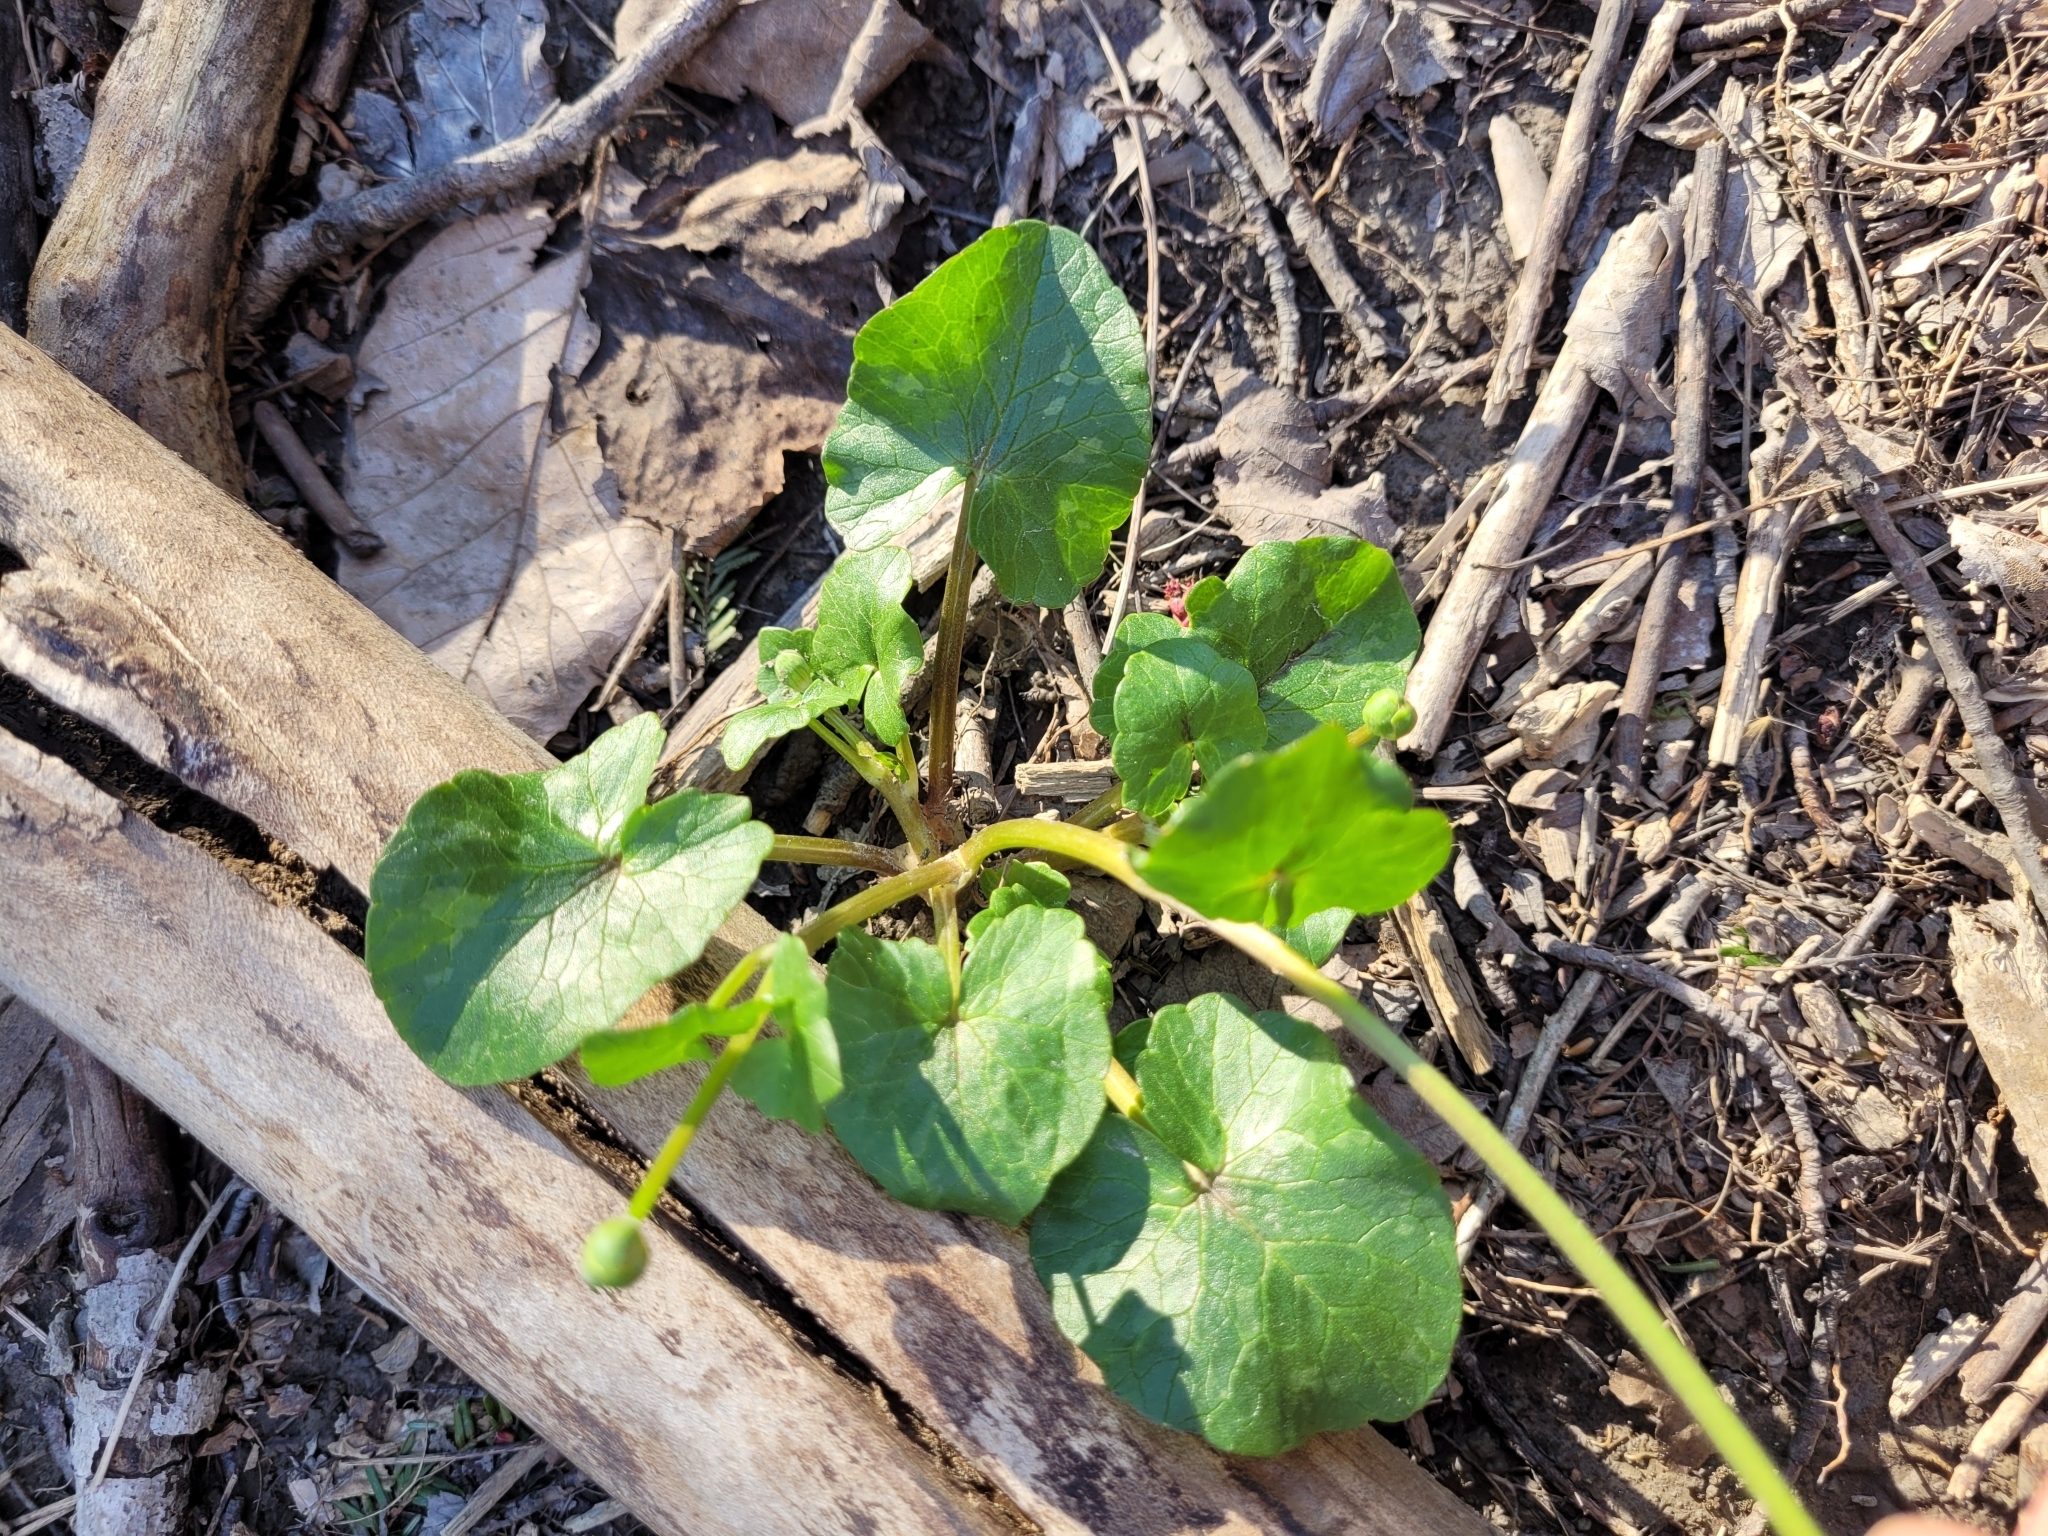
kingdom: Plantae
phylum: Tracheophyta
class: Magnoliopsida
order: Ranunculales
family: Ranunculaceae
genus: Ficaria
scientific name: Ficaria verna
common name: Lesser celandine
